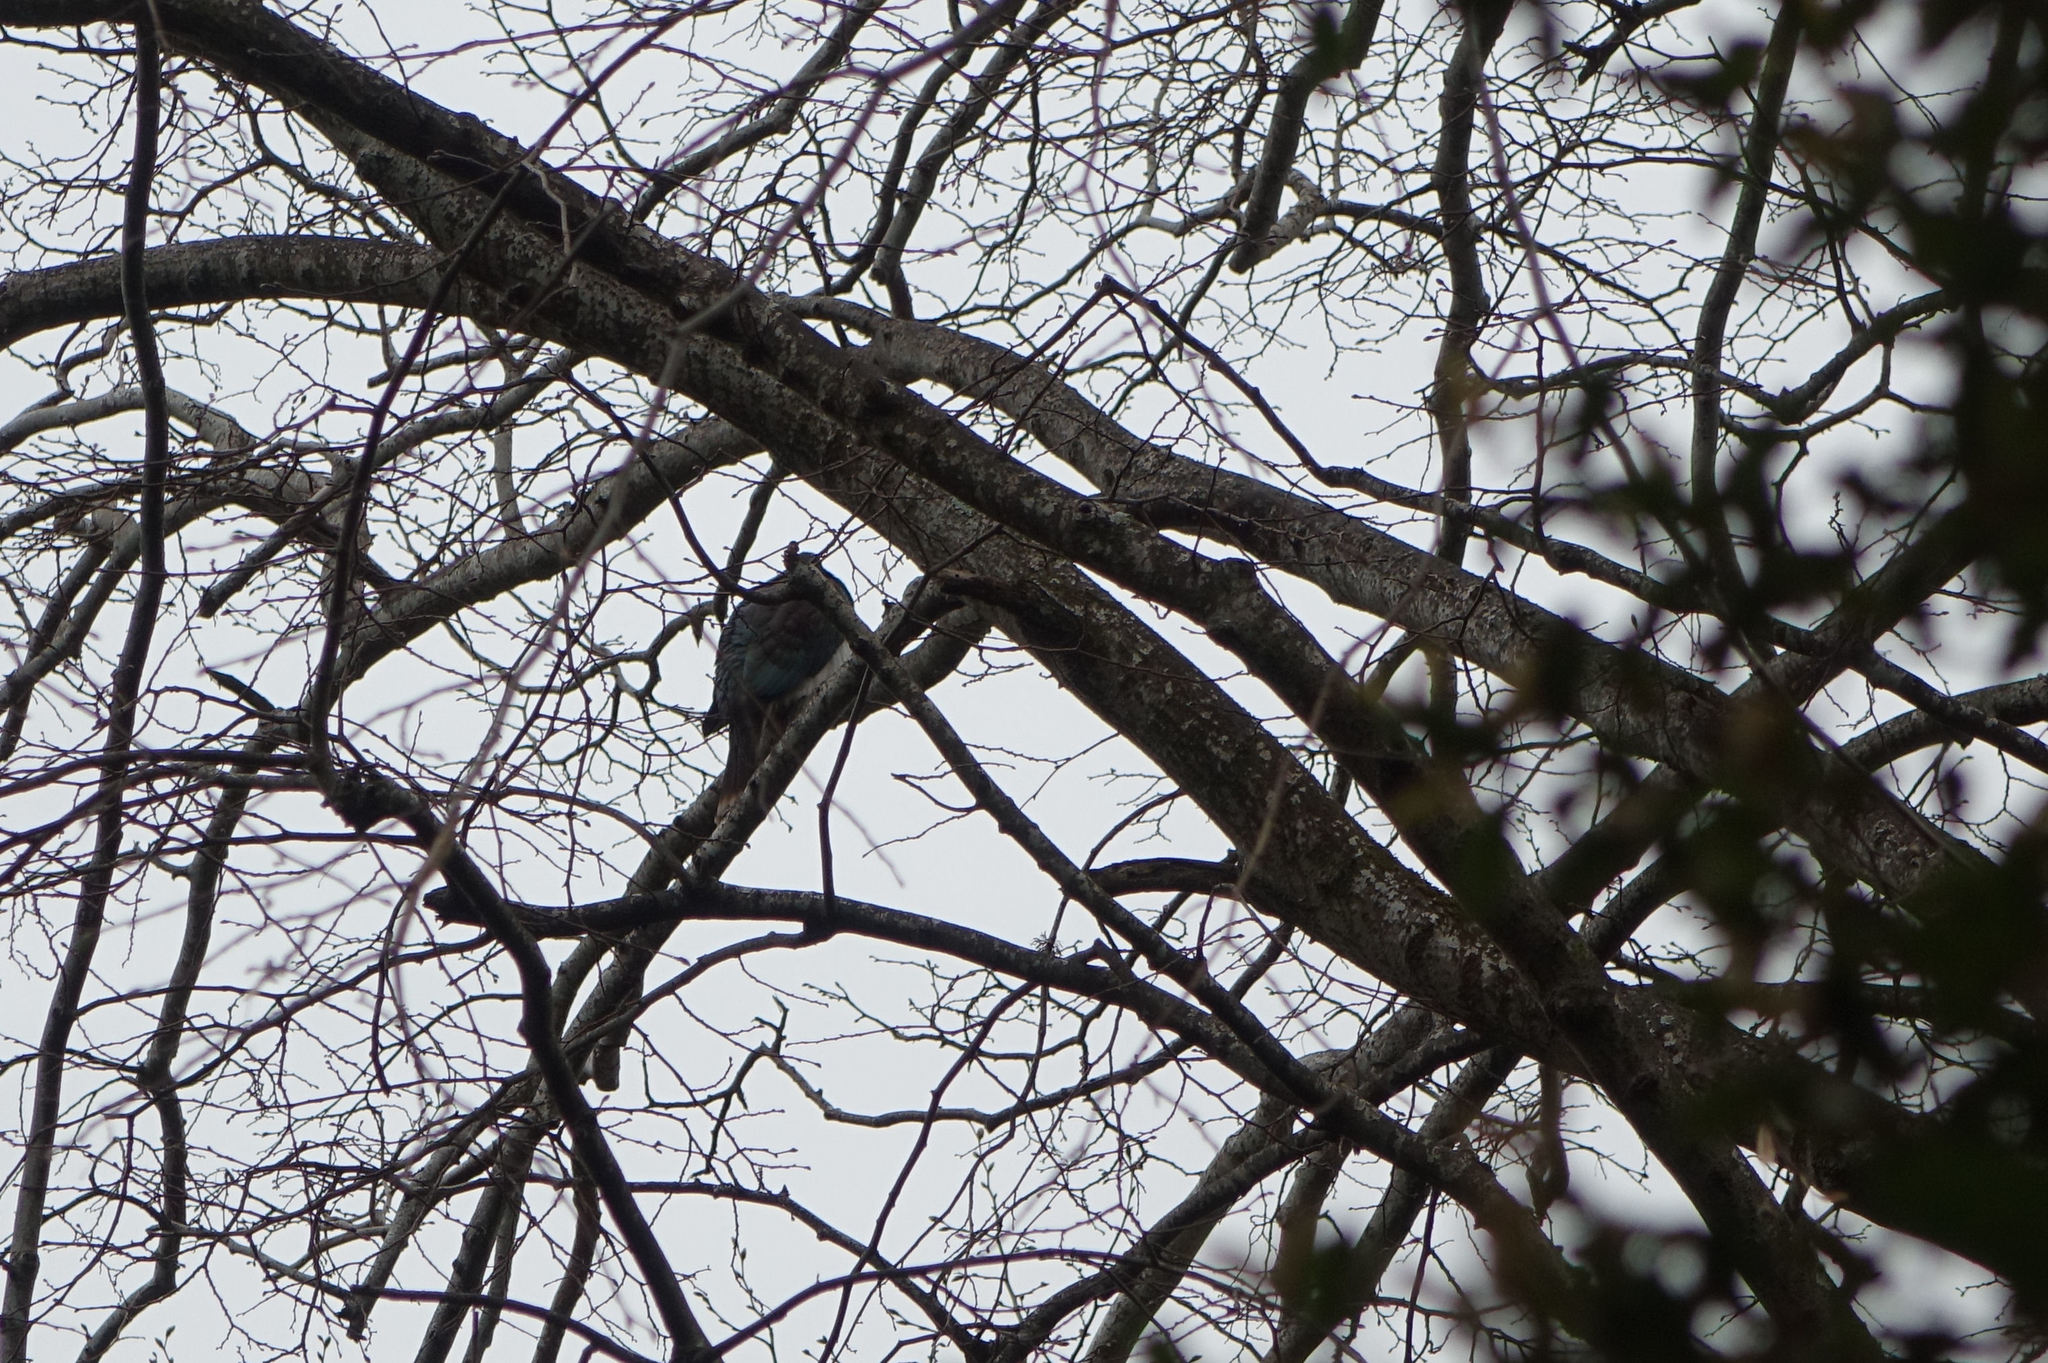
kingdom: Animalia
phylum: Chordata
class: Aves
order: Columbiformes
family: Columbidae
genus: Hemiphaga
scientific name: Hemiphaga novaeseelandiae
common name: New zealand pigeon
